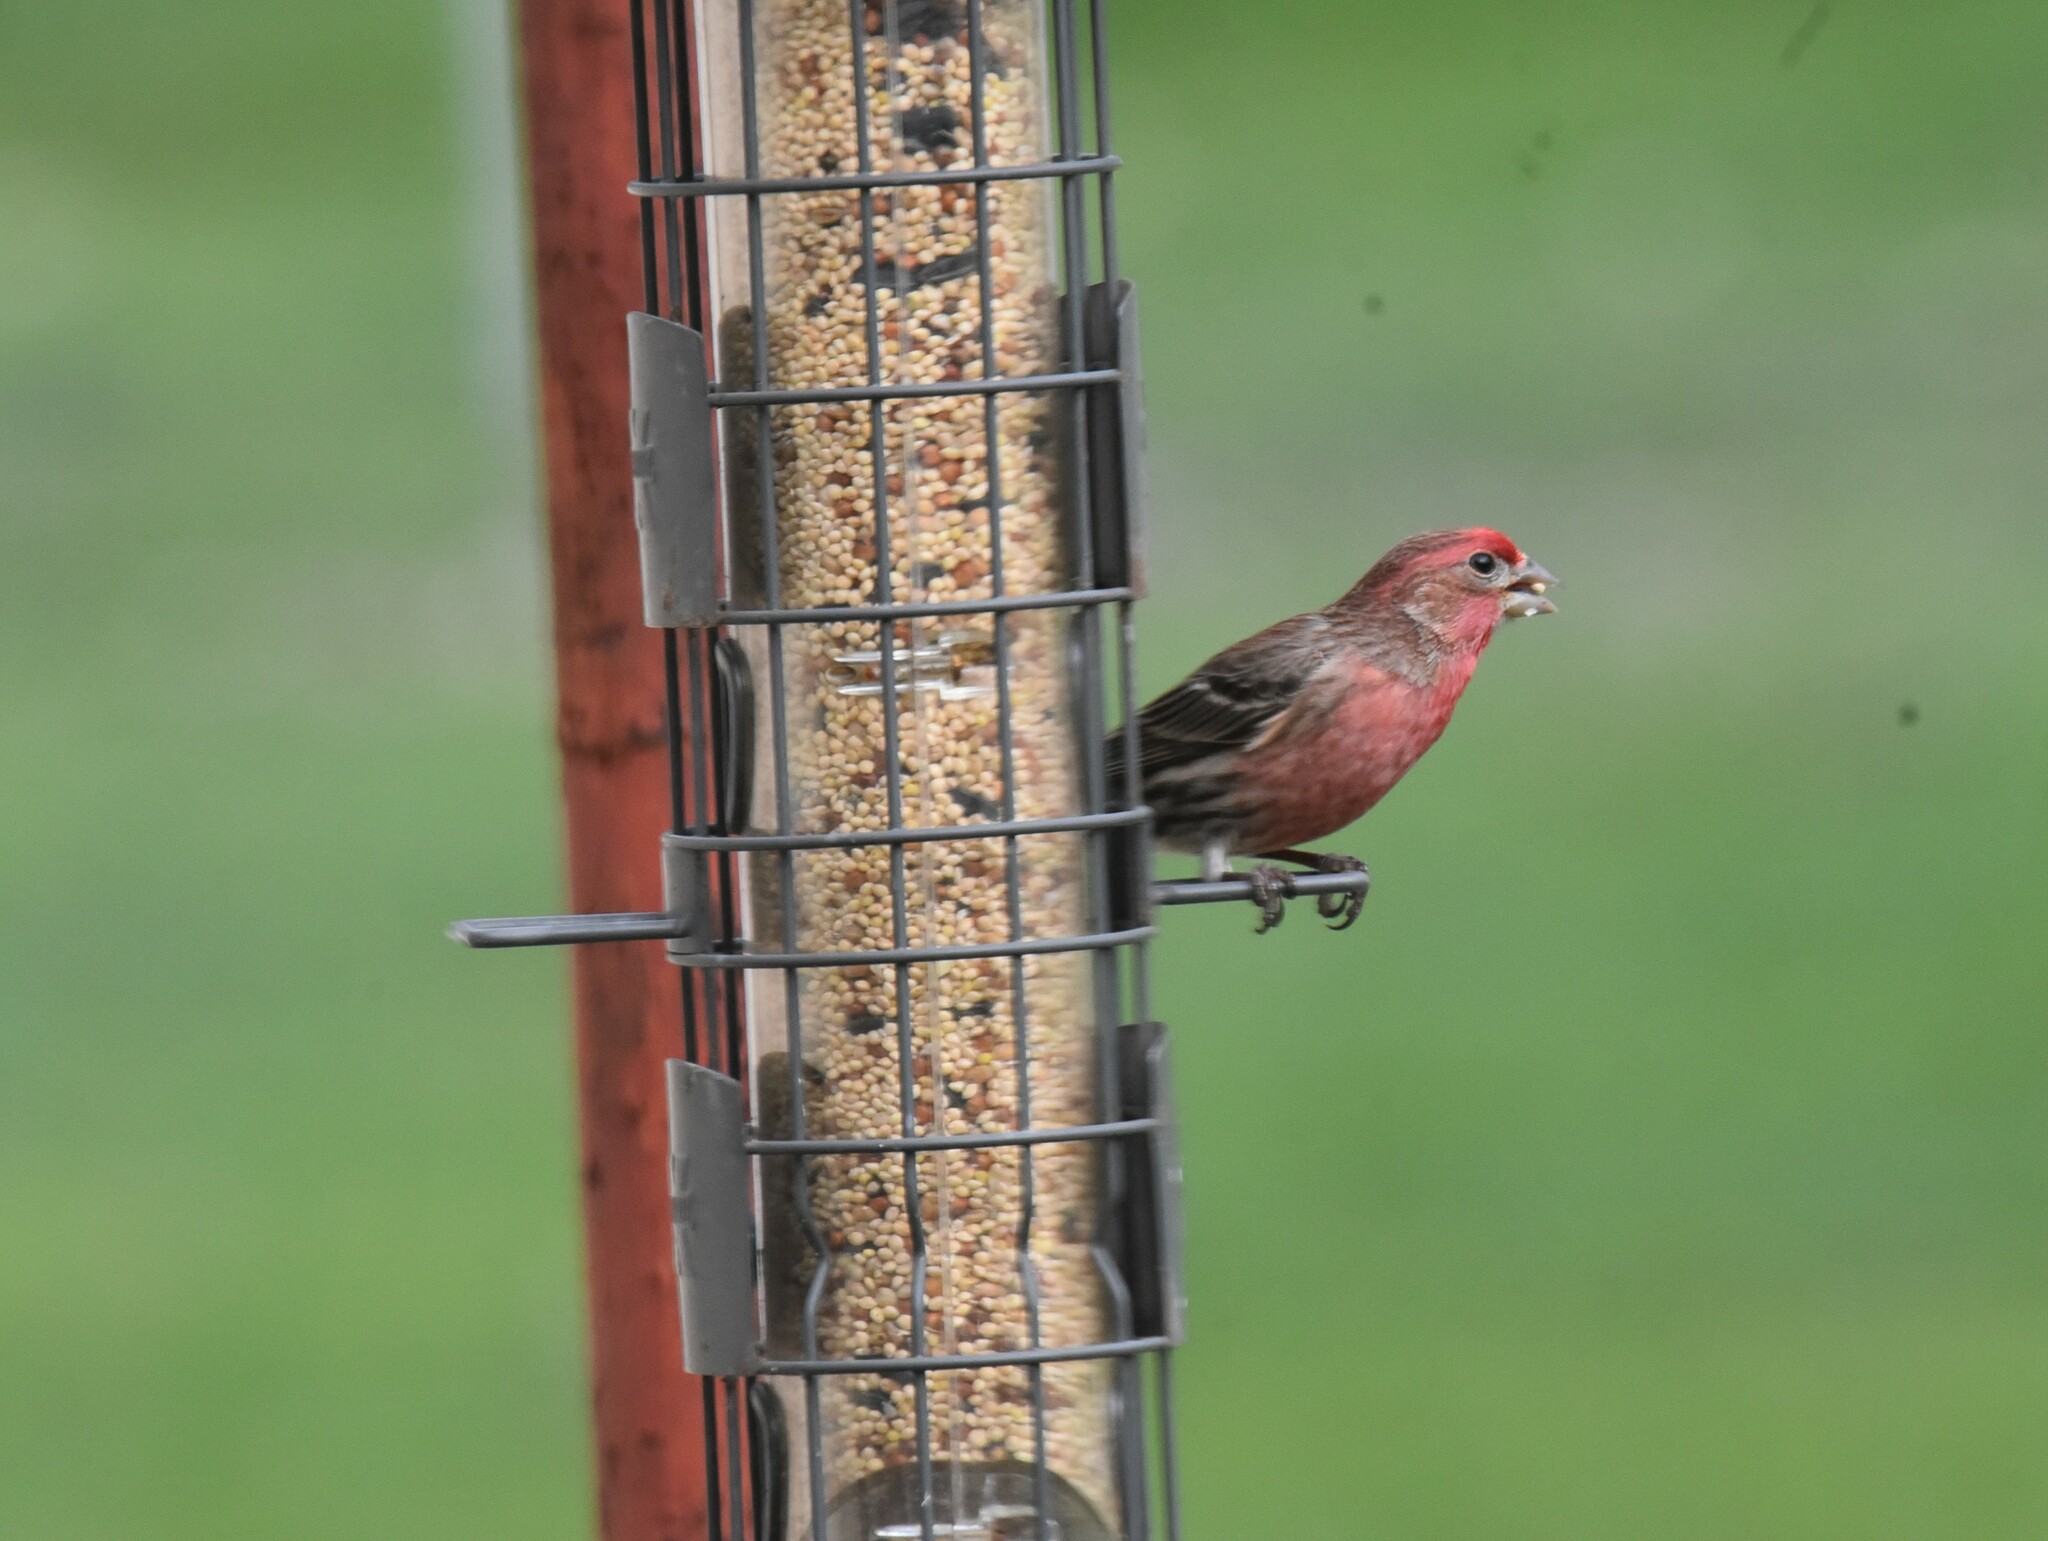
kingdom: Animalia
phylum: Chordata
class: Aves
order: Passeriformes
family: Fringillidae
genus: Haemorhous
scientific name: Haemorhous mexicanus
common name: House finch
